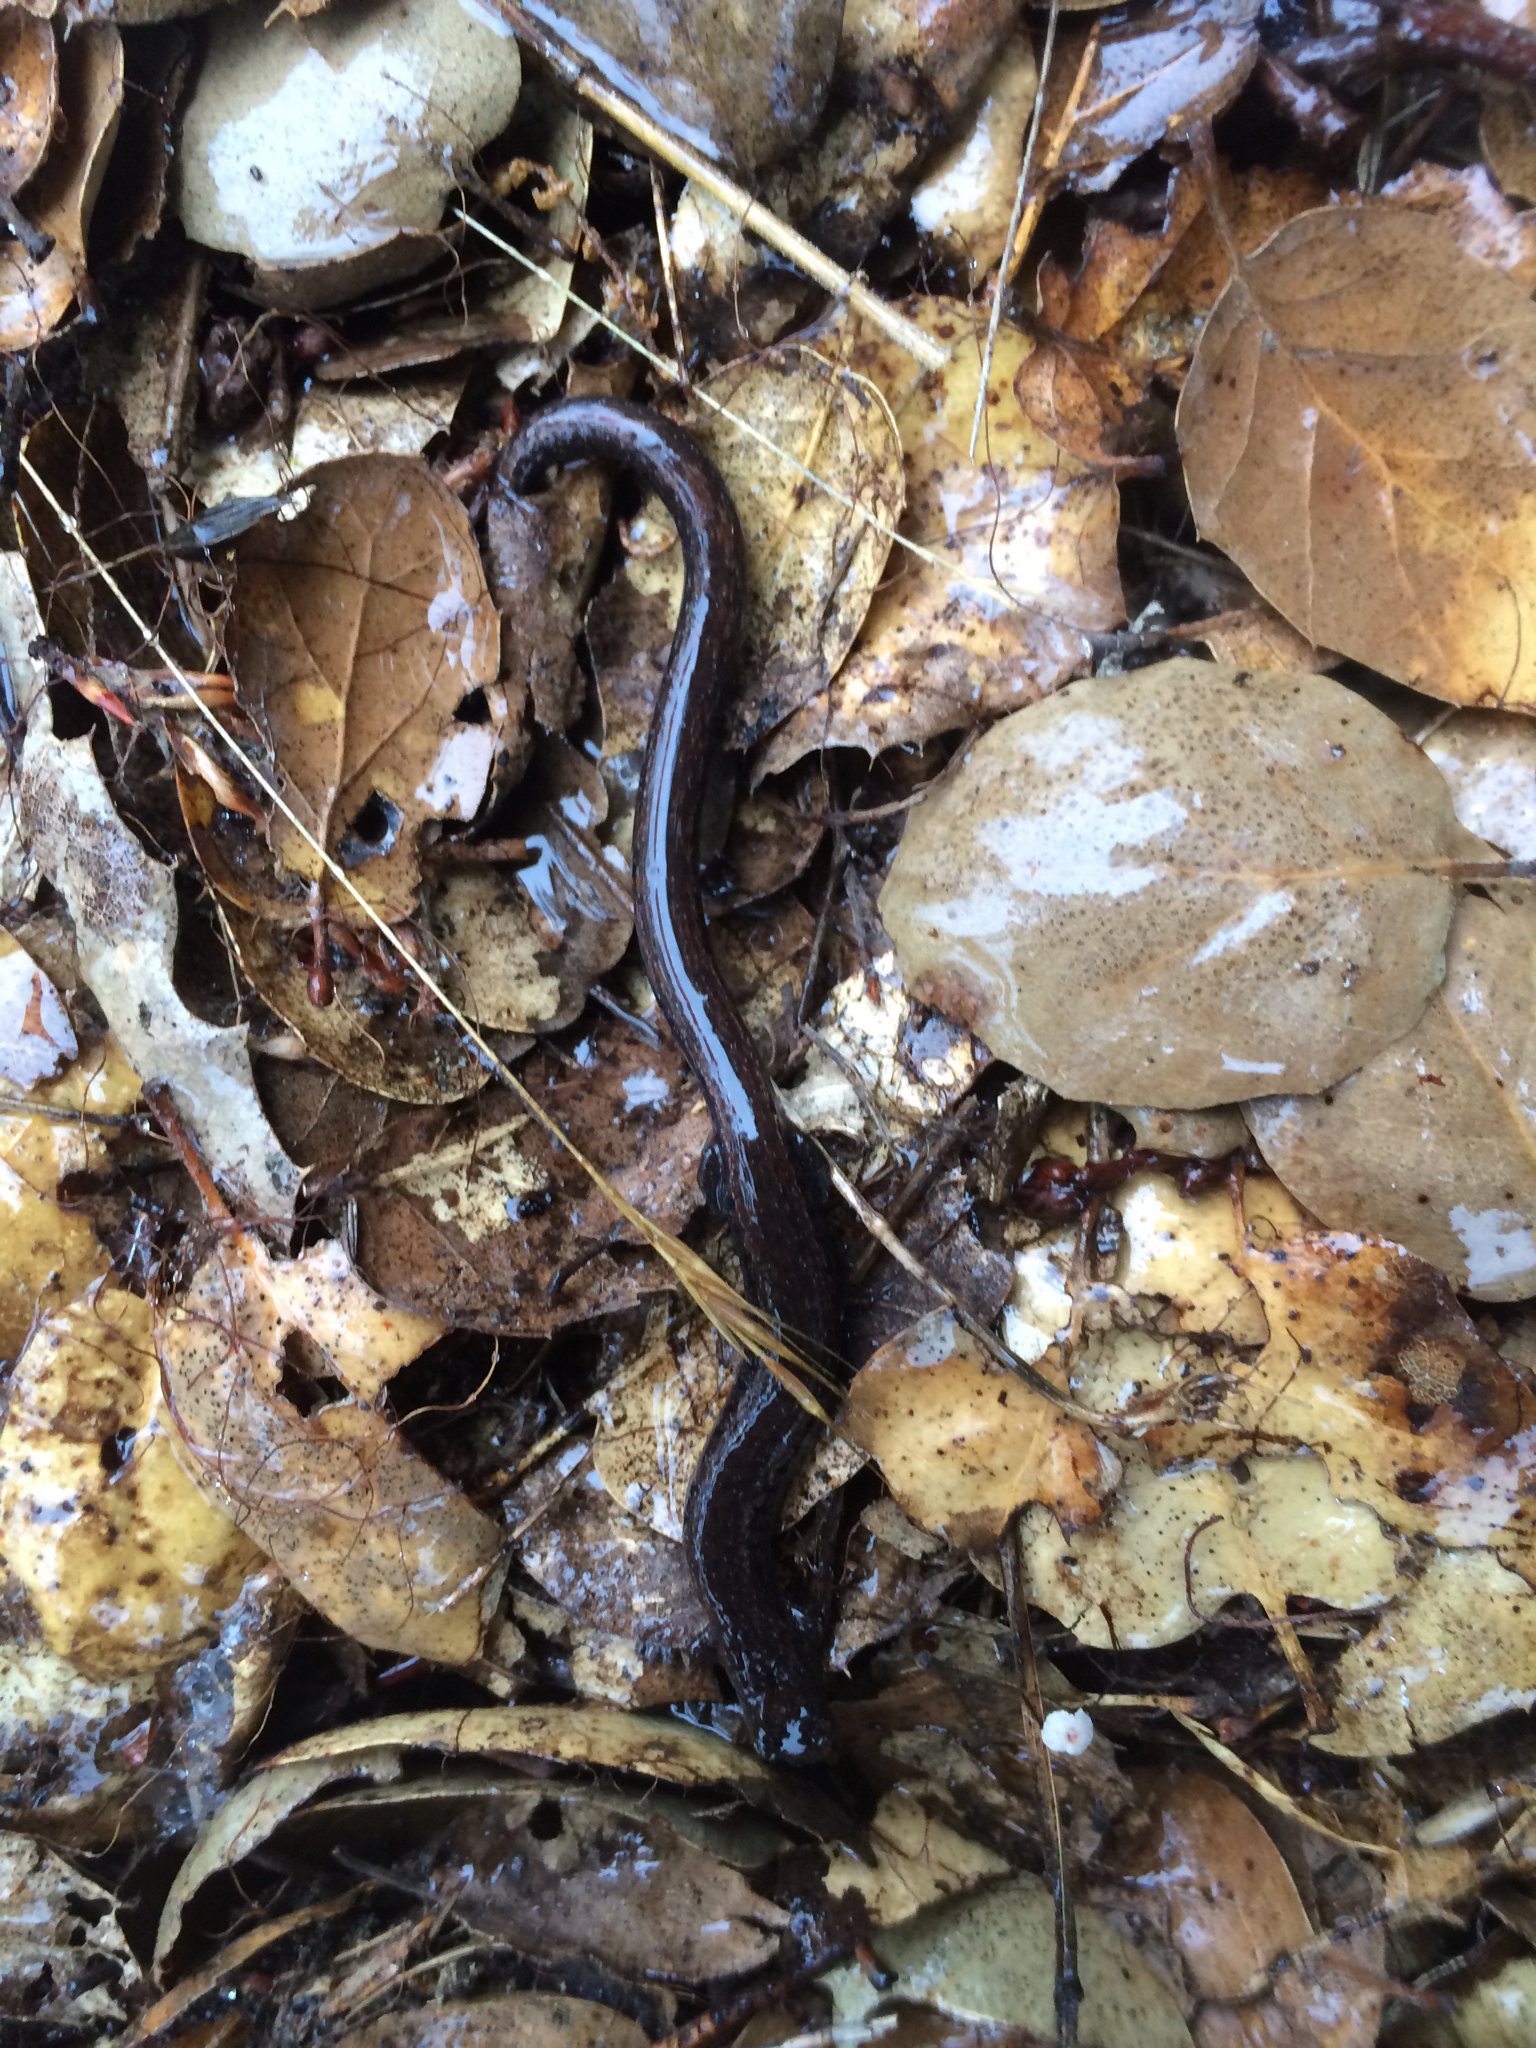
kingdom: Animalia
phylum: Chordata
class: Amphibia
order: Caudata
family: Plethodontidae
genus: Batrachoseps
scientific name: Batrachoseps attenuatus
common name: California slender salamander
